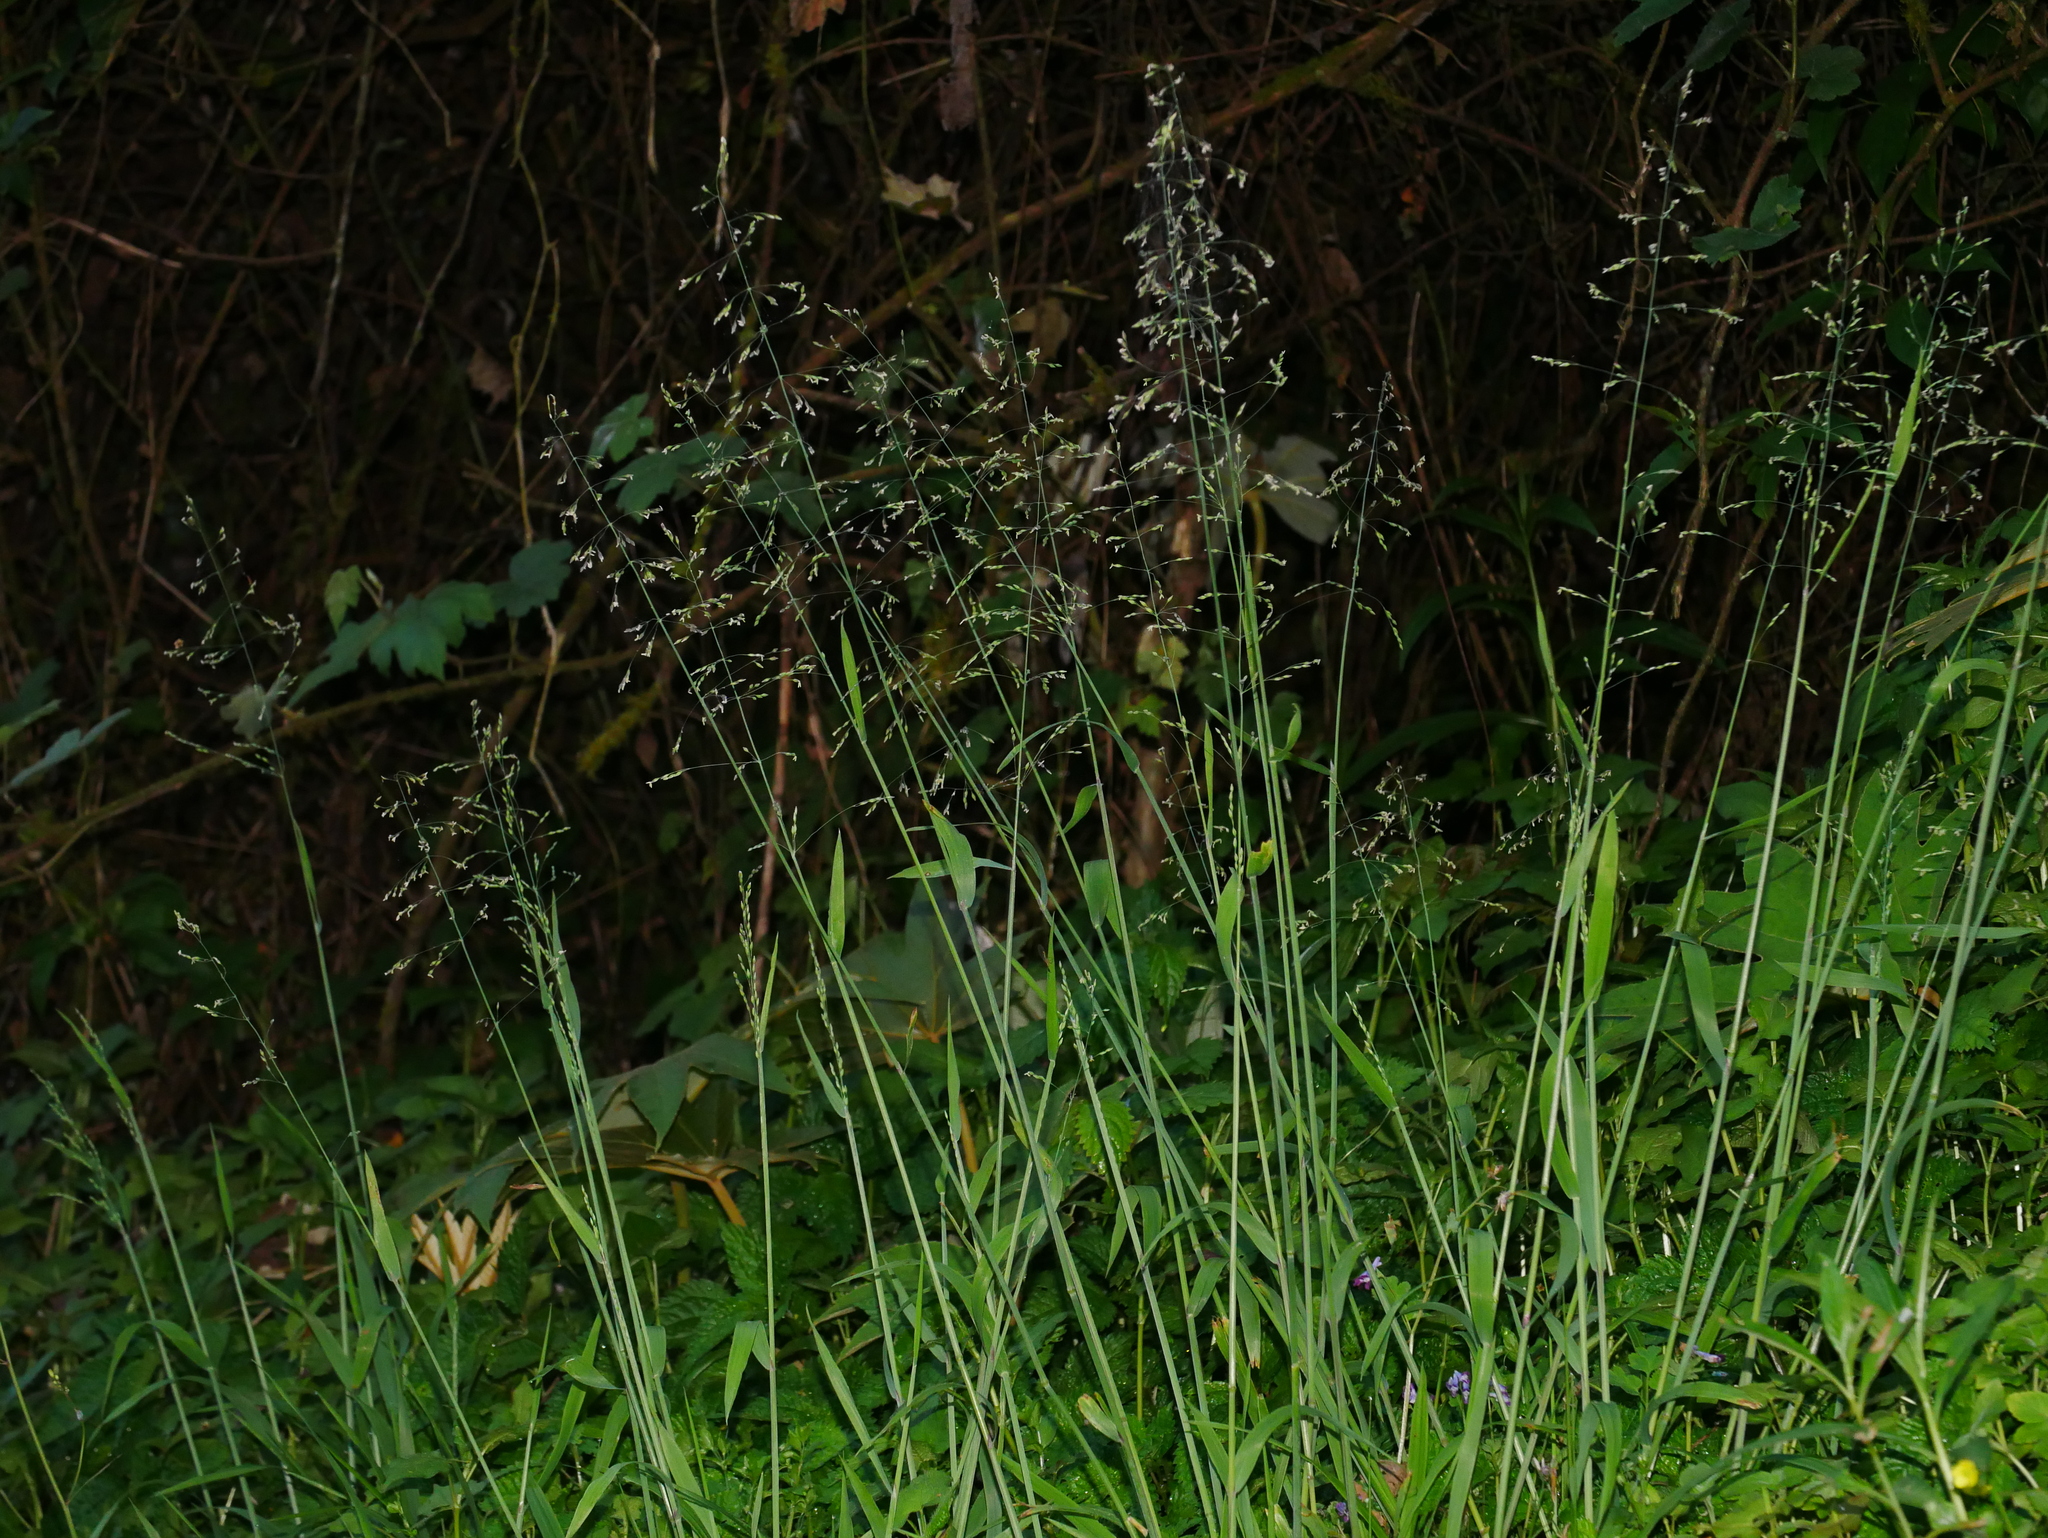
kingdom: Plantae
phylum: Tracheophyta
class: Liliopsida
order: Poales
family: Poaceae
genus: Milium
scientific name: Milium effusum
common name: Wood millet
